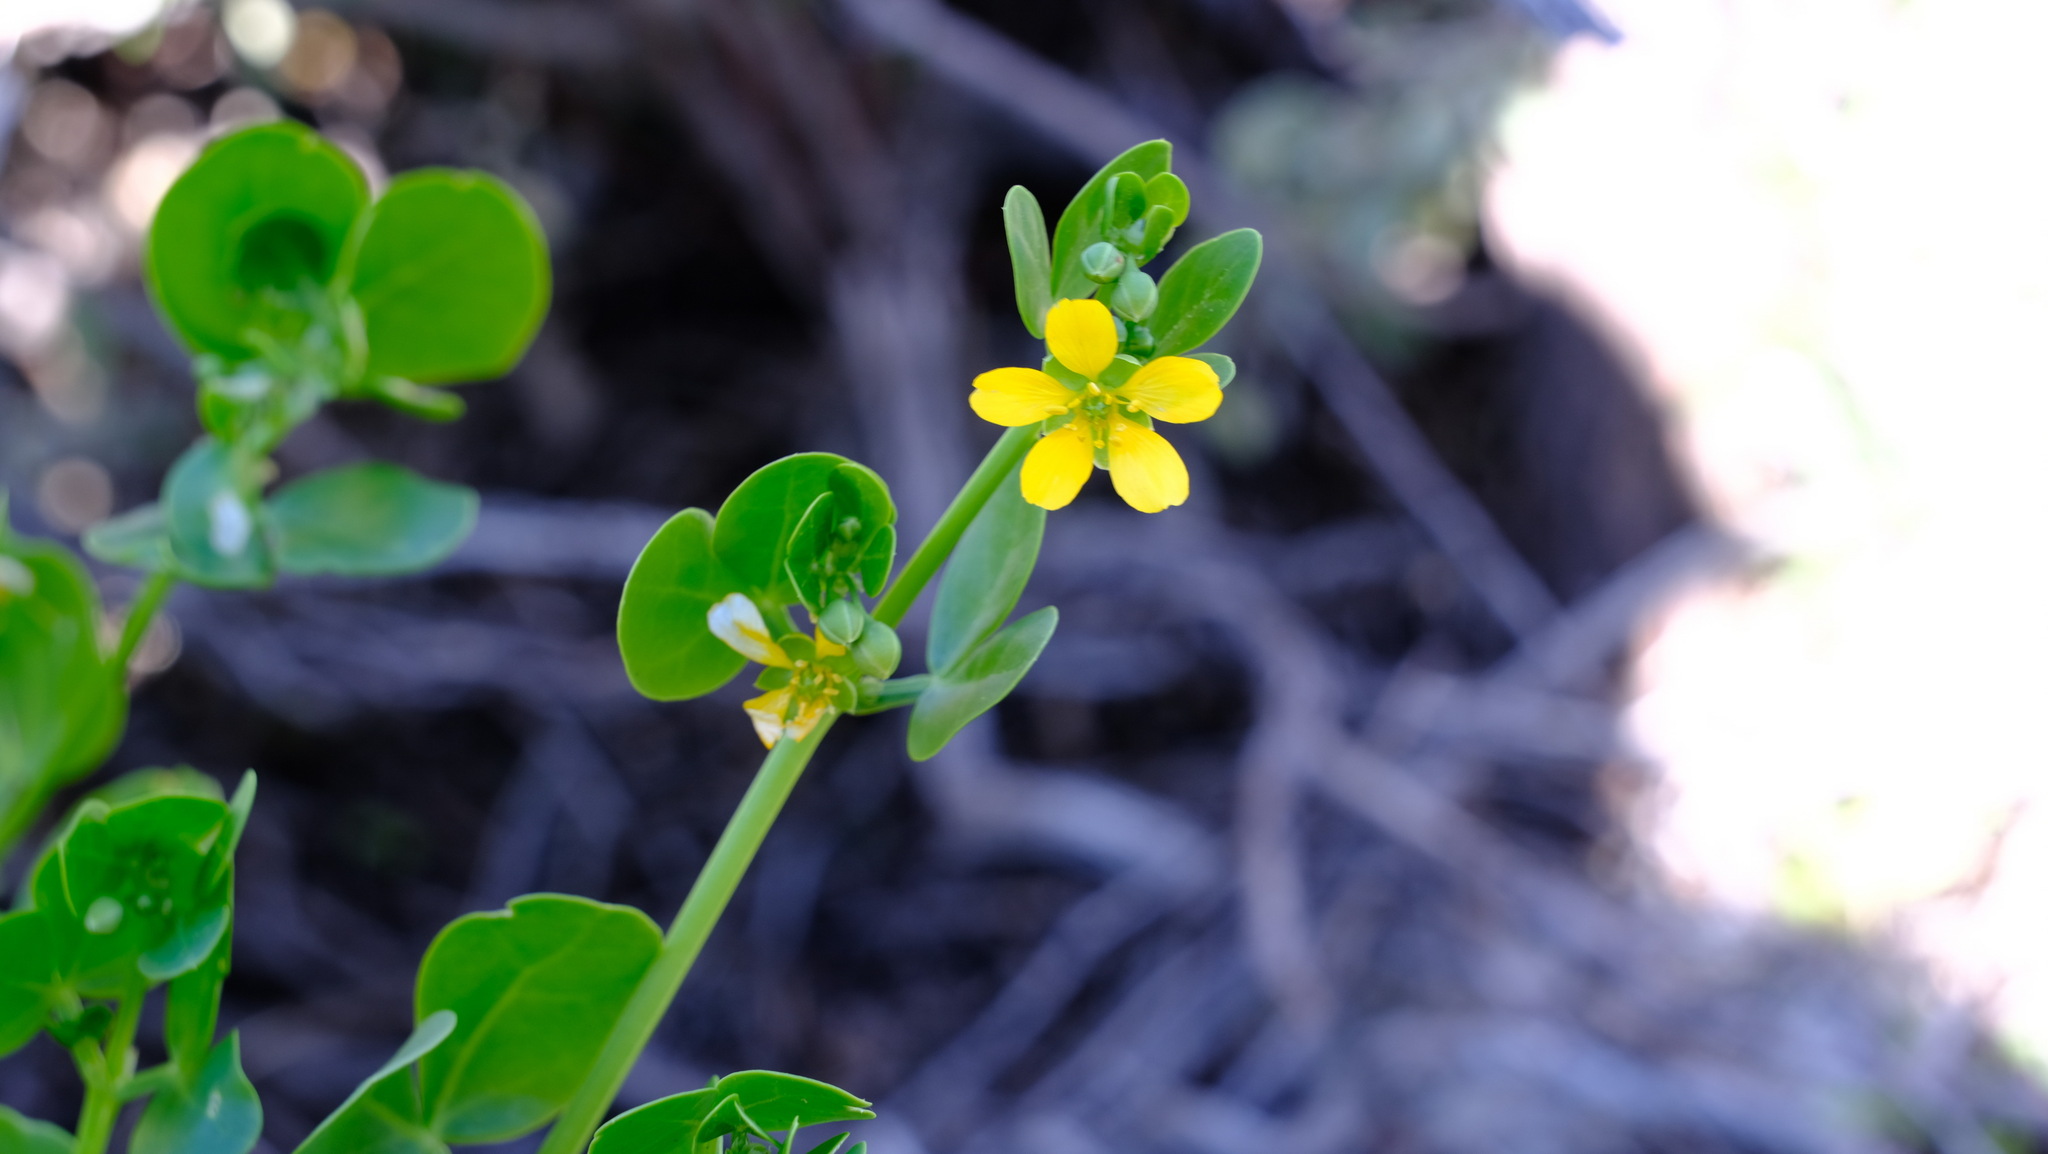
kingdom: Plantae
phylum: Tracheophyta
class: Magnoliopsida
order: Zygophyllales
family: Zygophyllaceae
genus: Roepera
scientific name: Roepera apiculata
